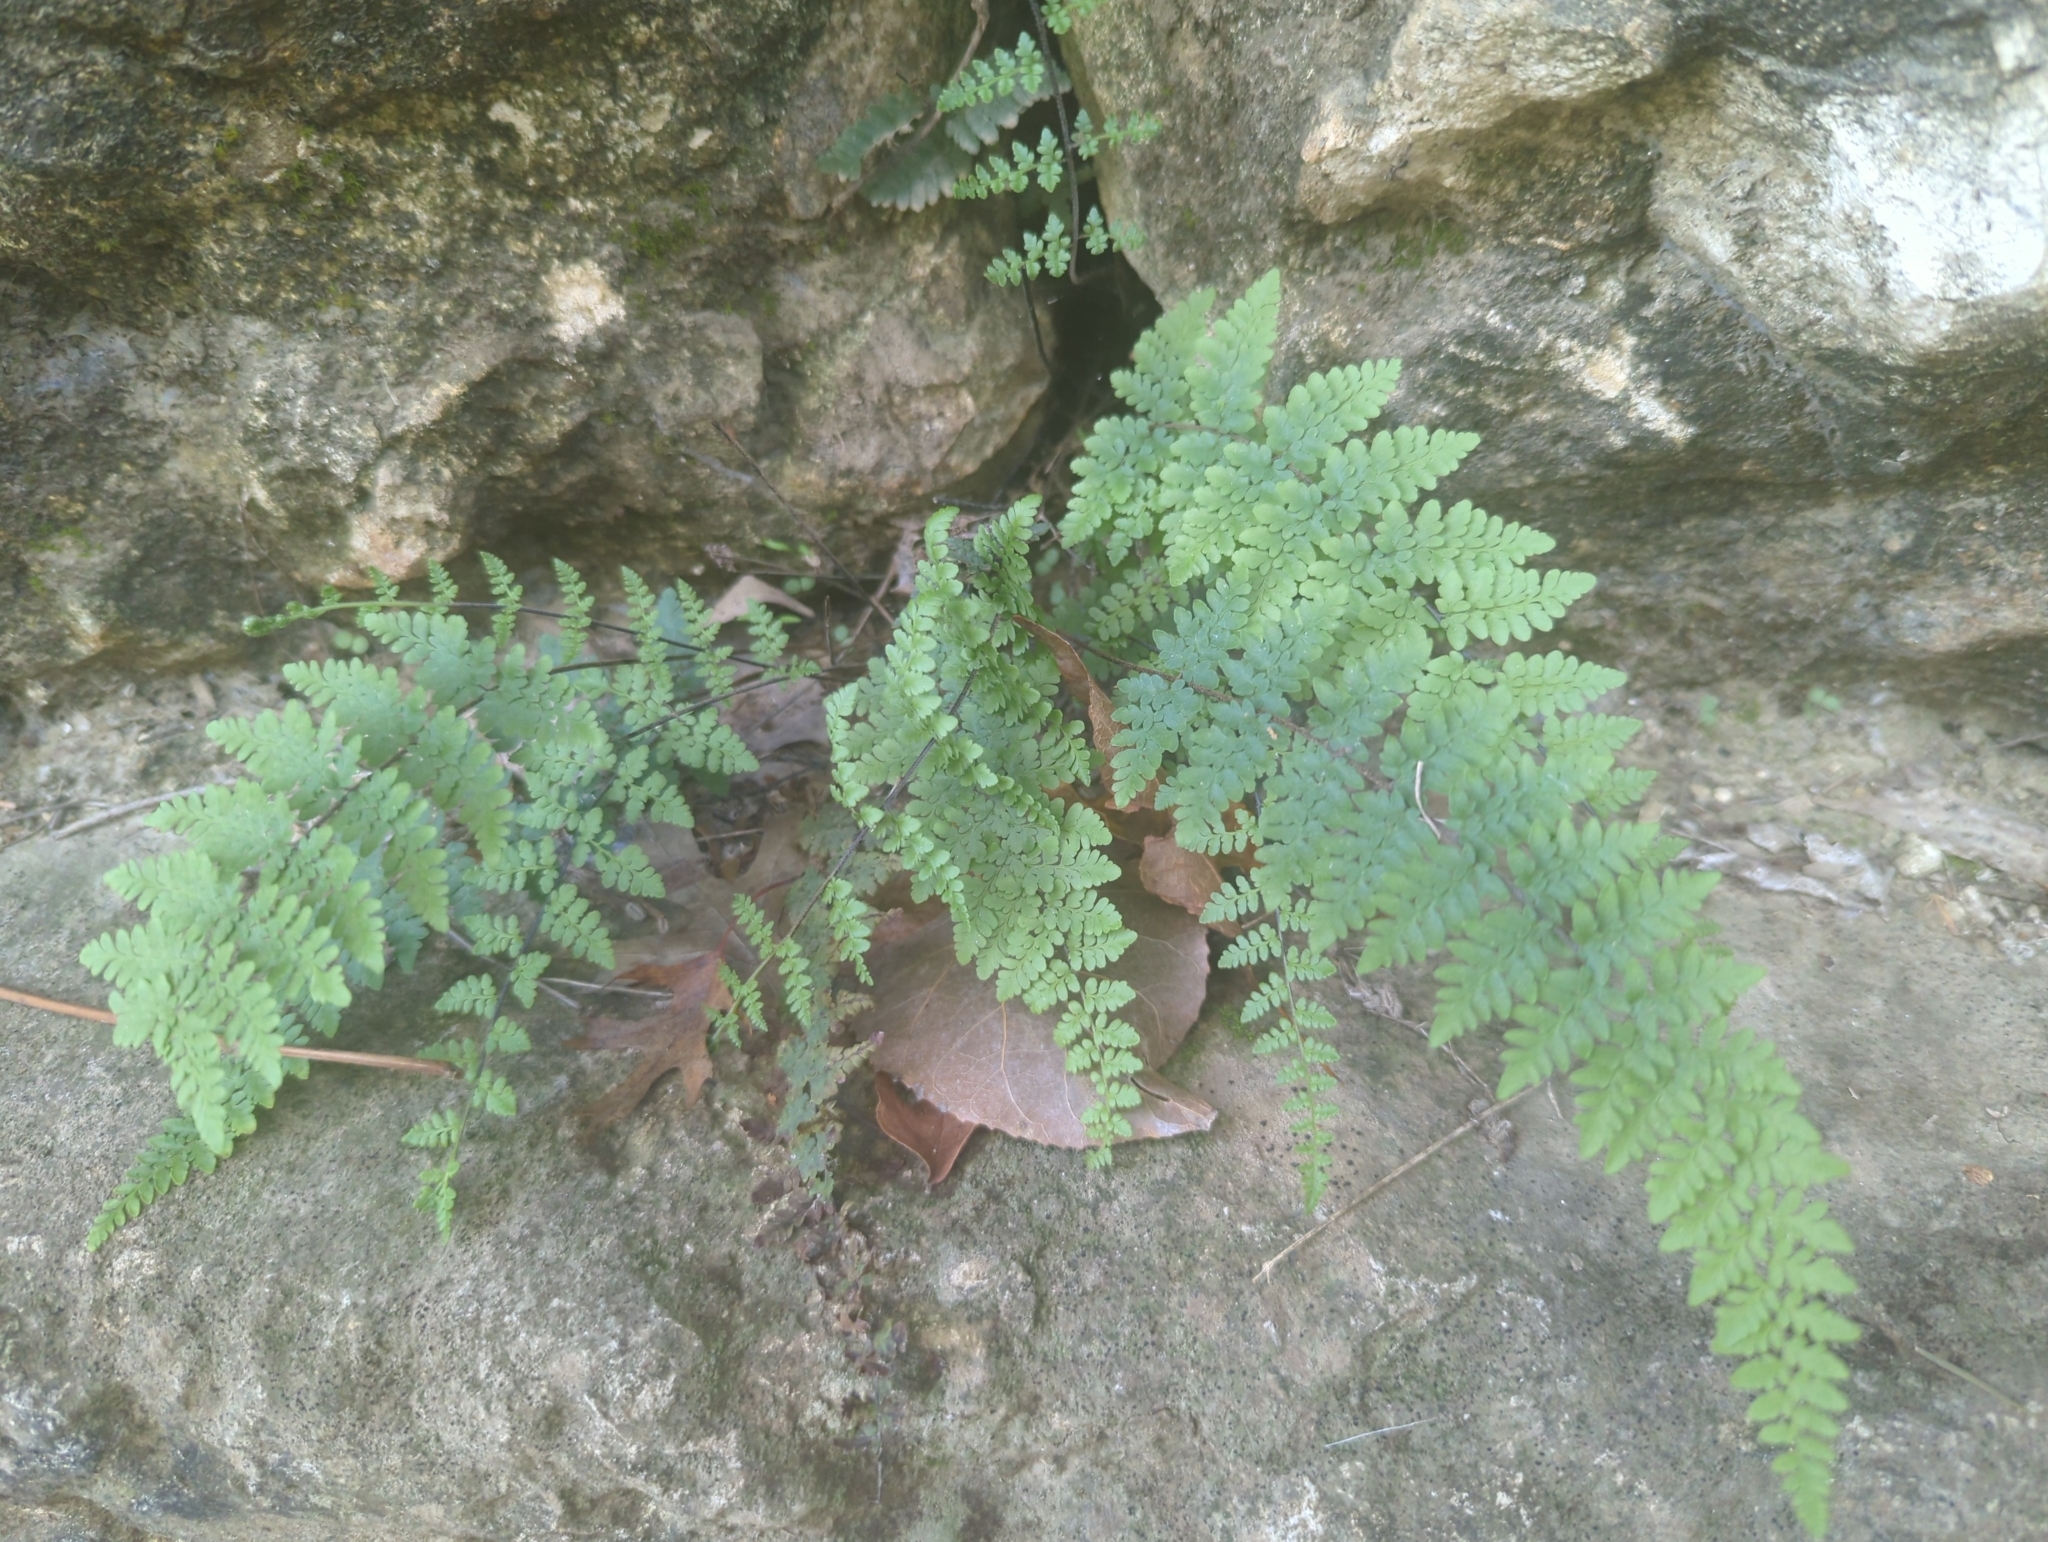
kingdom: Plantae
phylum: Tracheophyta
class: Polypodiopsida
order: Polypodiales
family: Pteridaceae
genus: Myriopteris
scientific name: Myriopteris alabamensis
